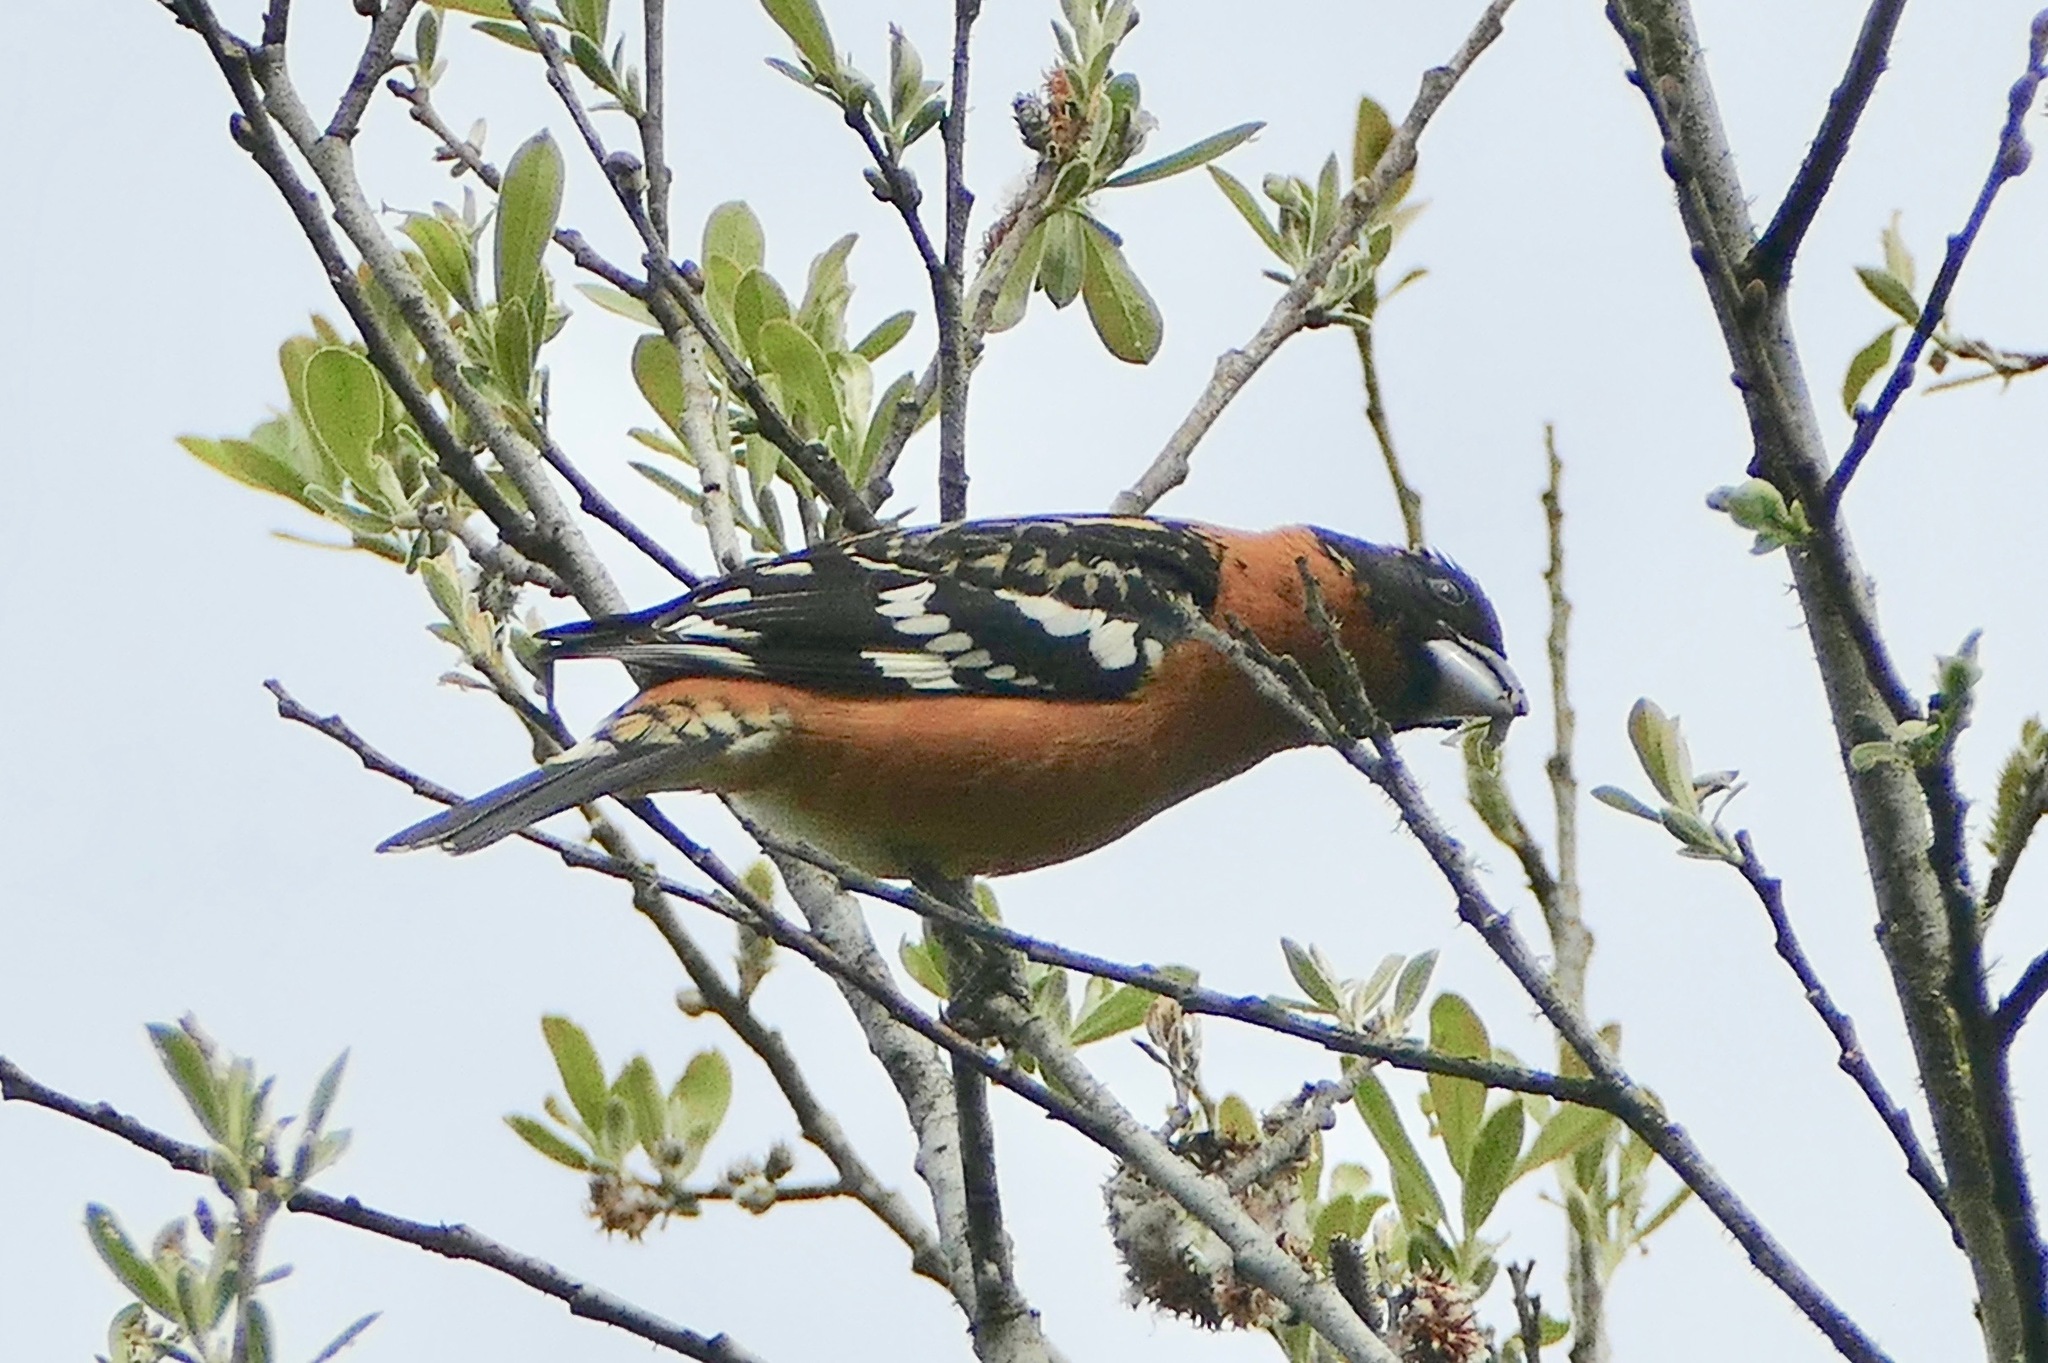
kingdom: Animalia
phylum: Chordata
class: Aves
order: Passeriformes
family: Cardinalidae
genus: Pheucticus
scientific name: Pheucticus melanocephalus
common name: Black-headed grosbeak
